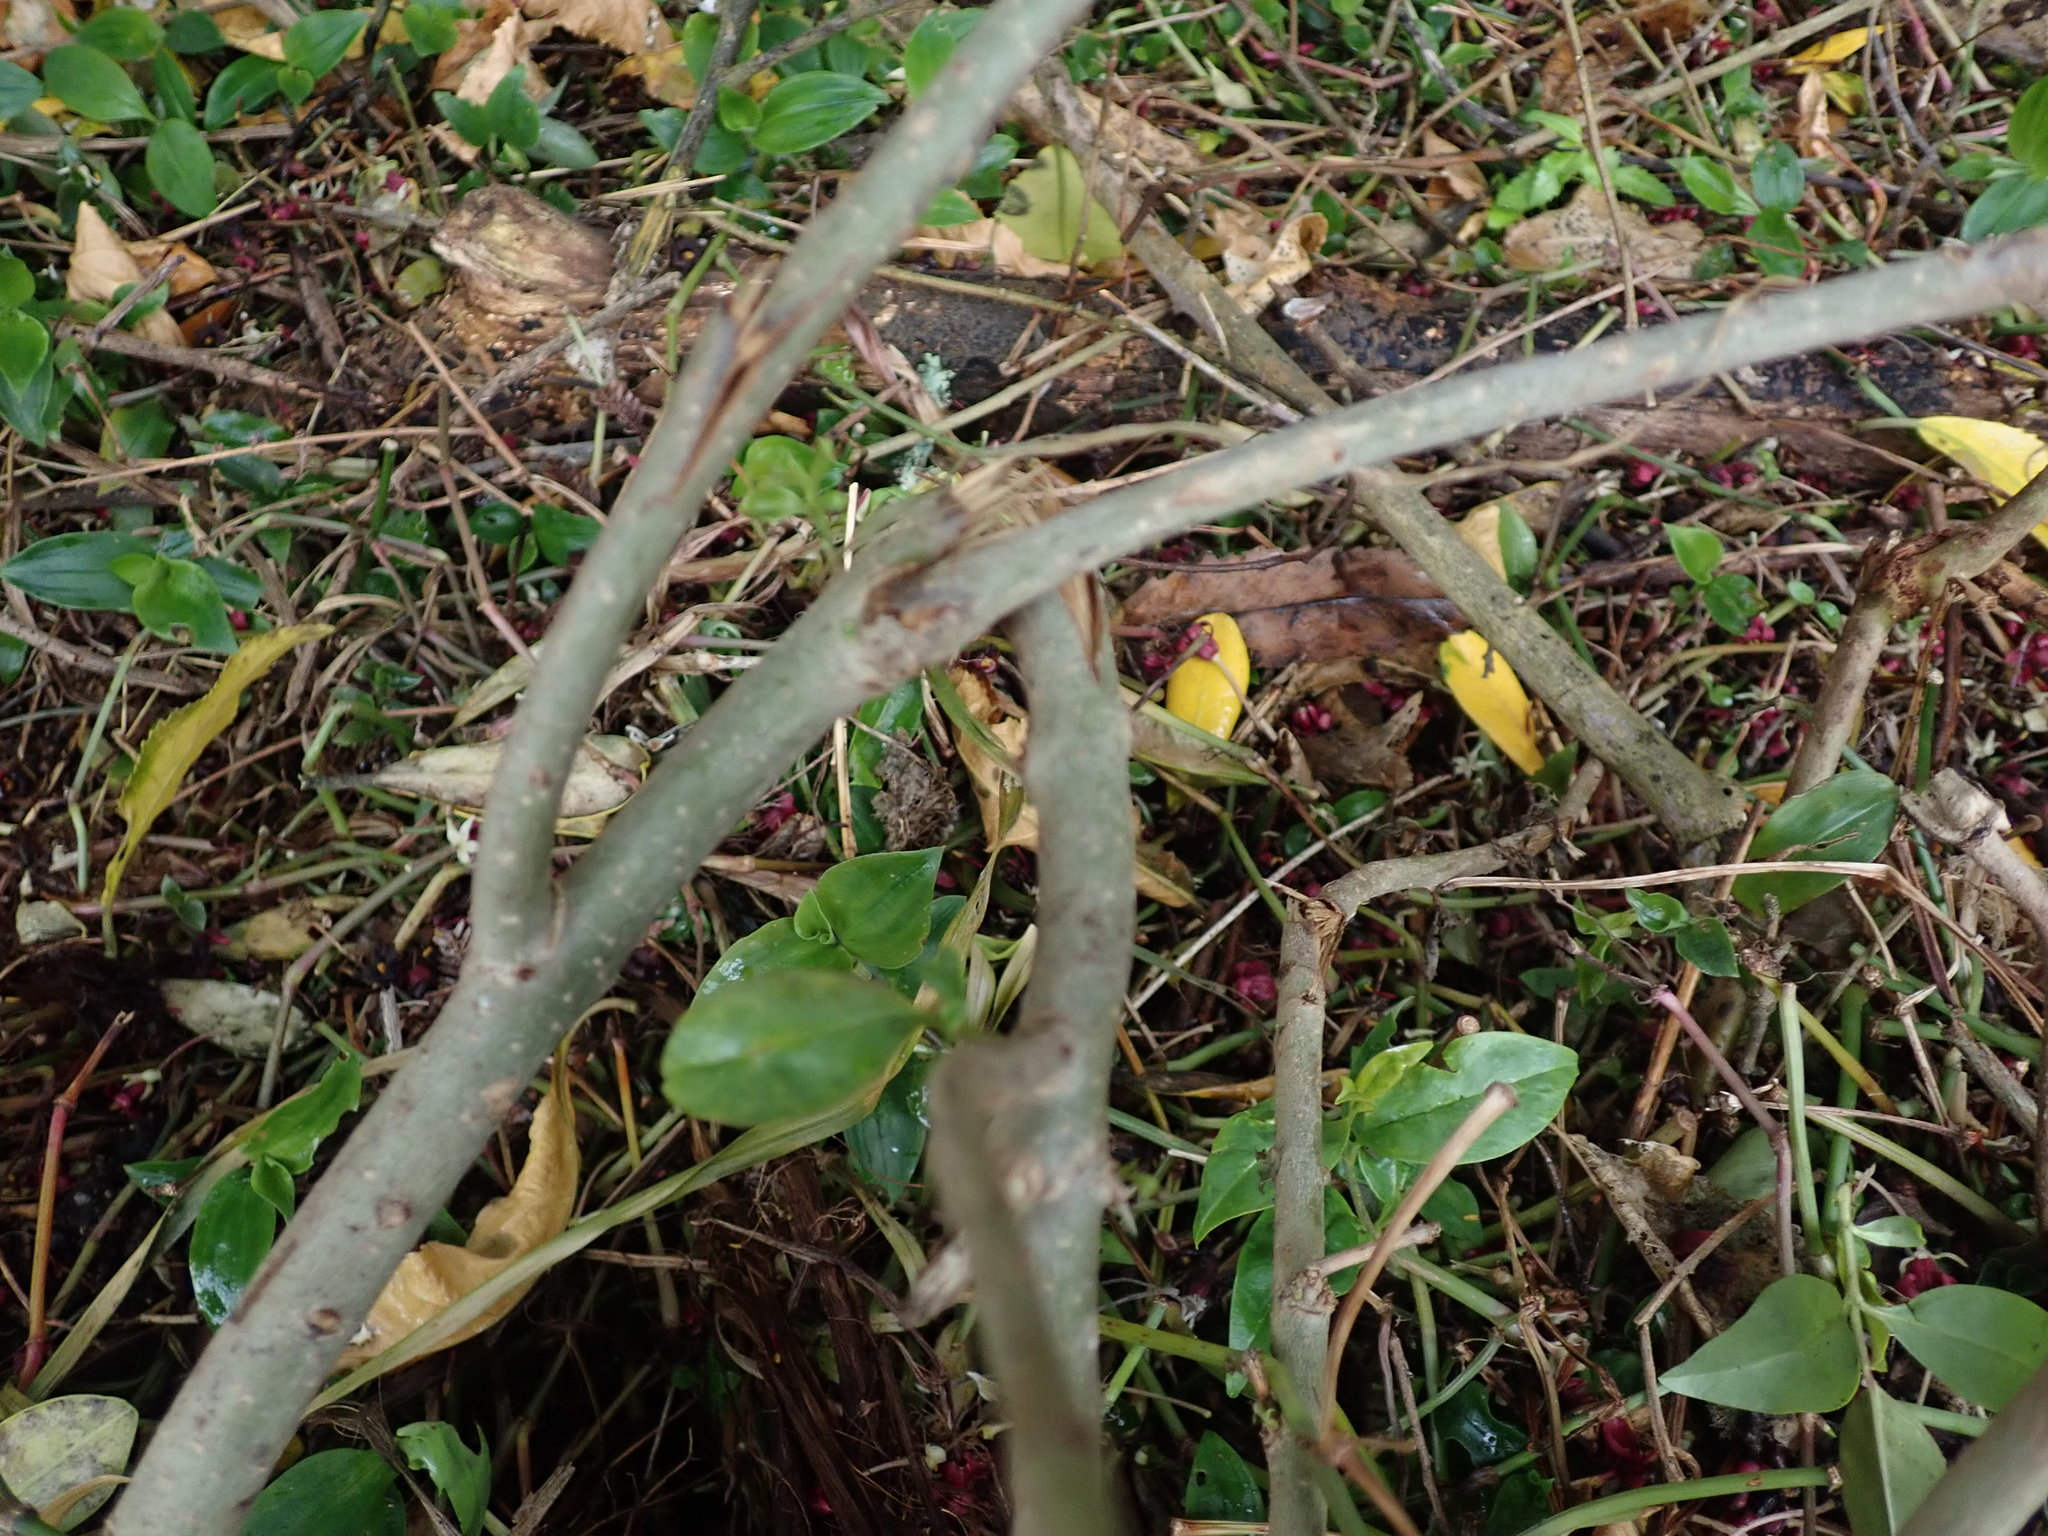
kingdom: Plantae
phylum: Tracheophyta
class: Magnoliopsida
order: Lamiales
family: Oleaceae
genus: Ligustrum
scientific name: Ligustrum lucidum
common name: Glossy privet
